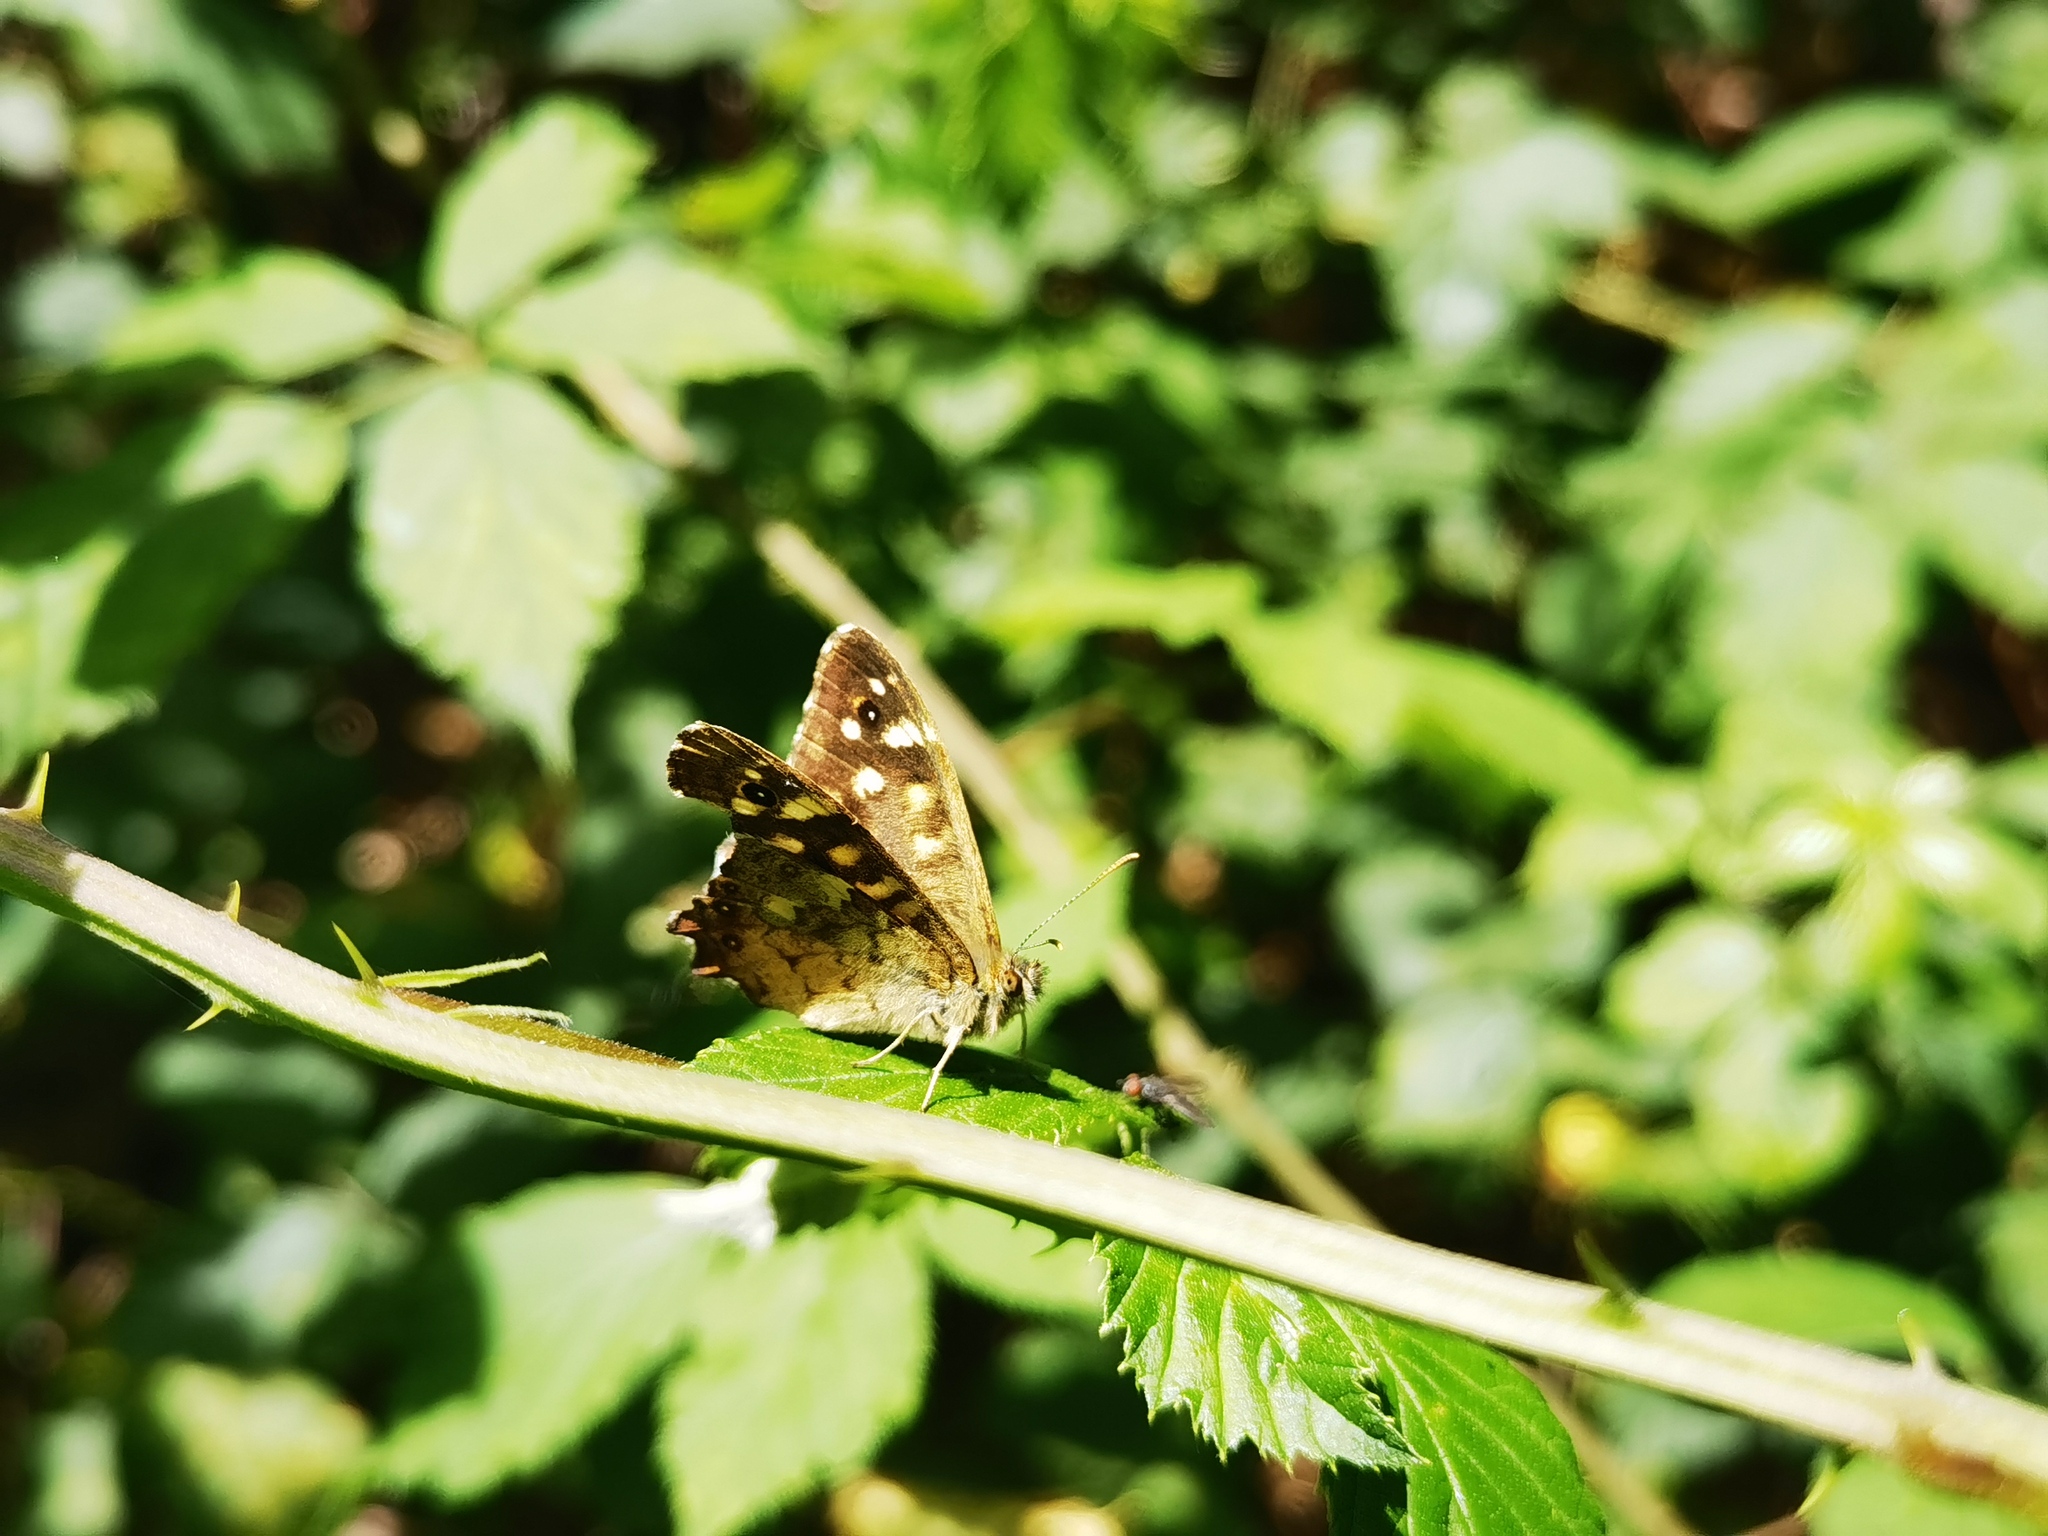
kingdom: Animalia
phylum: Arthropoda
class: Insecta
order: Lepidoptera
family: Nymphalidae
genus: Pararge
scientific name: Pararge aegeria
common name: Speckled wood
